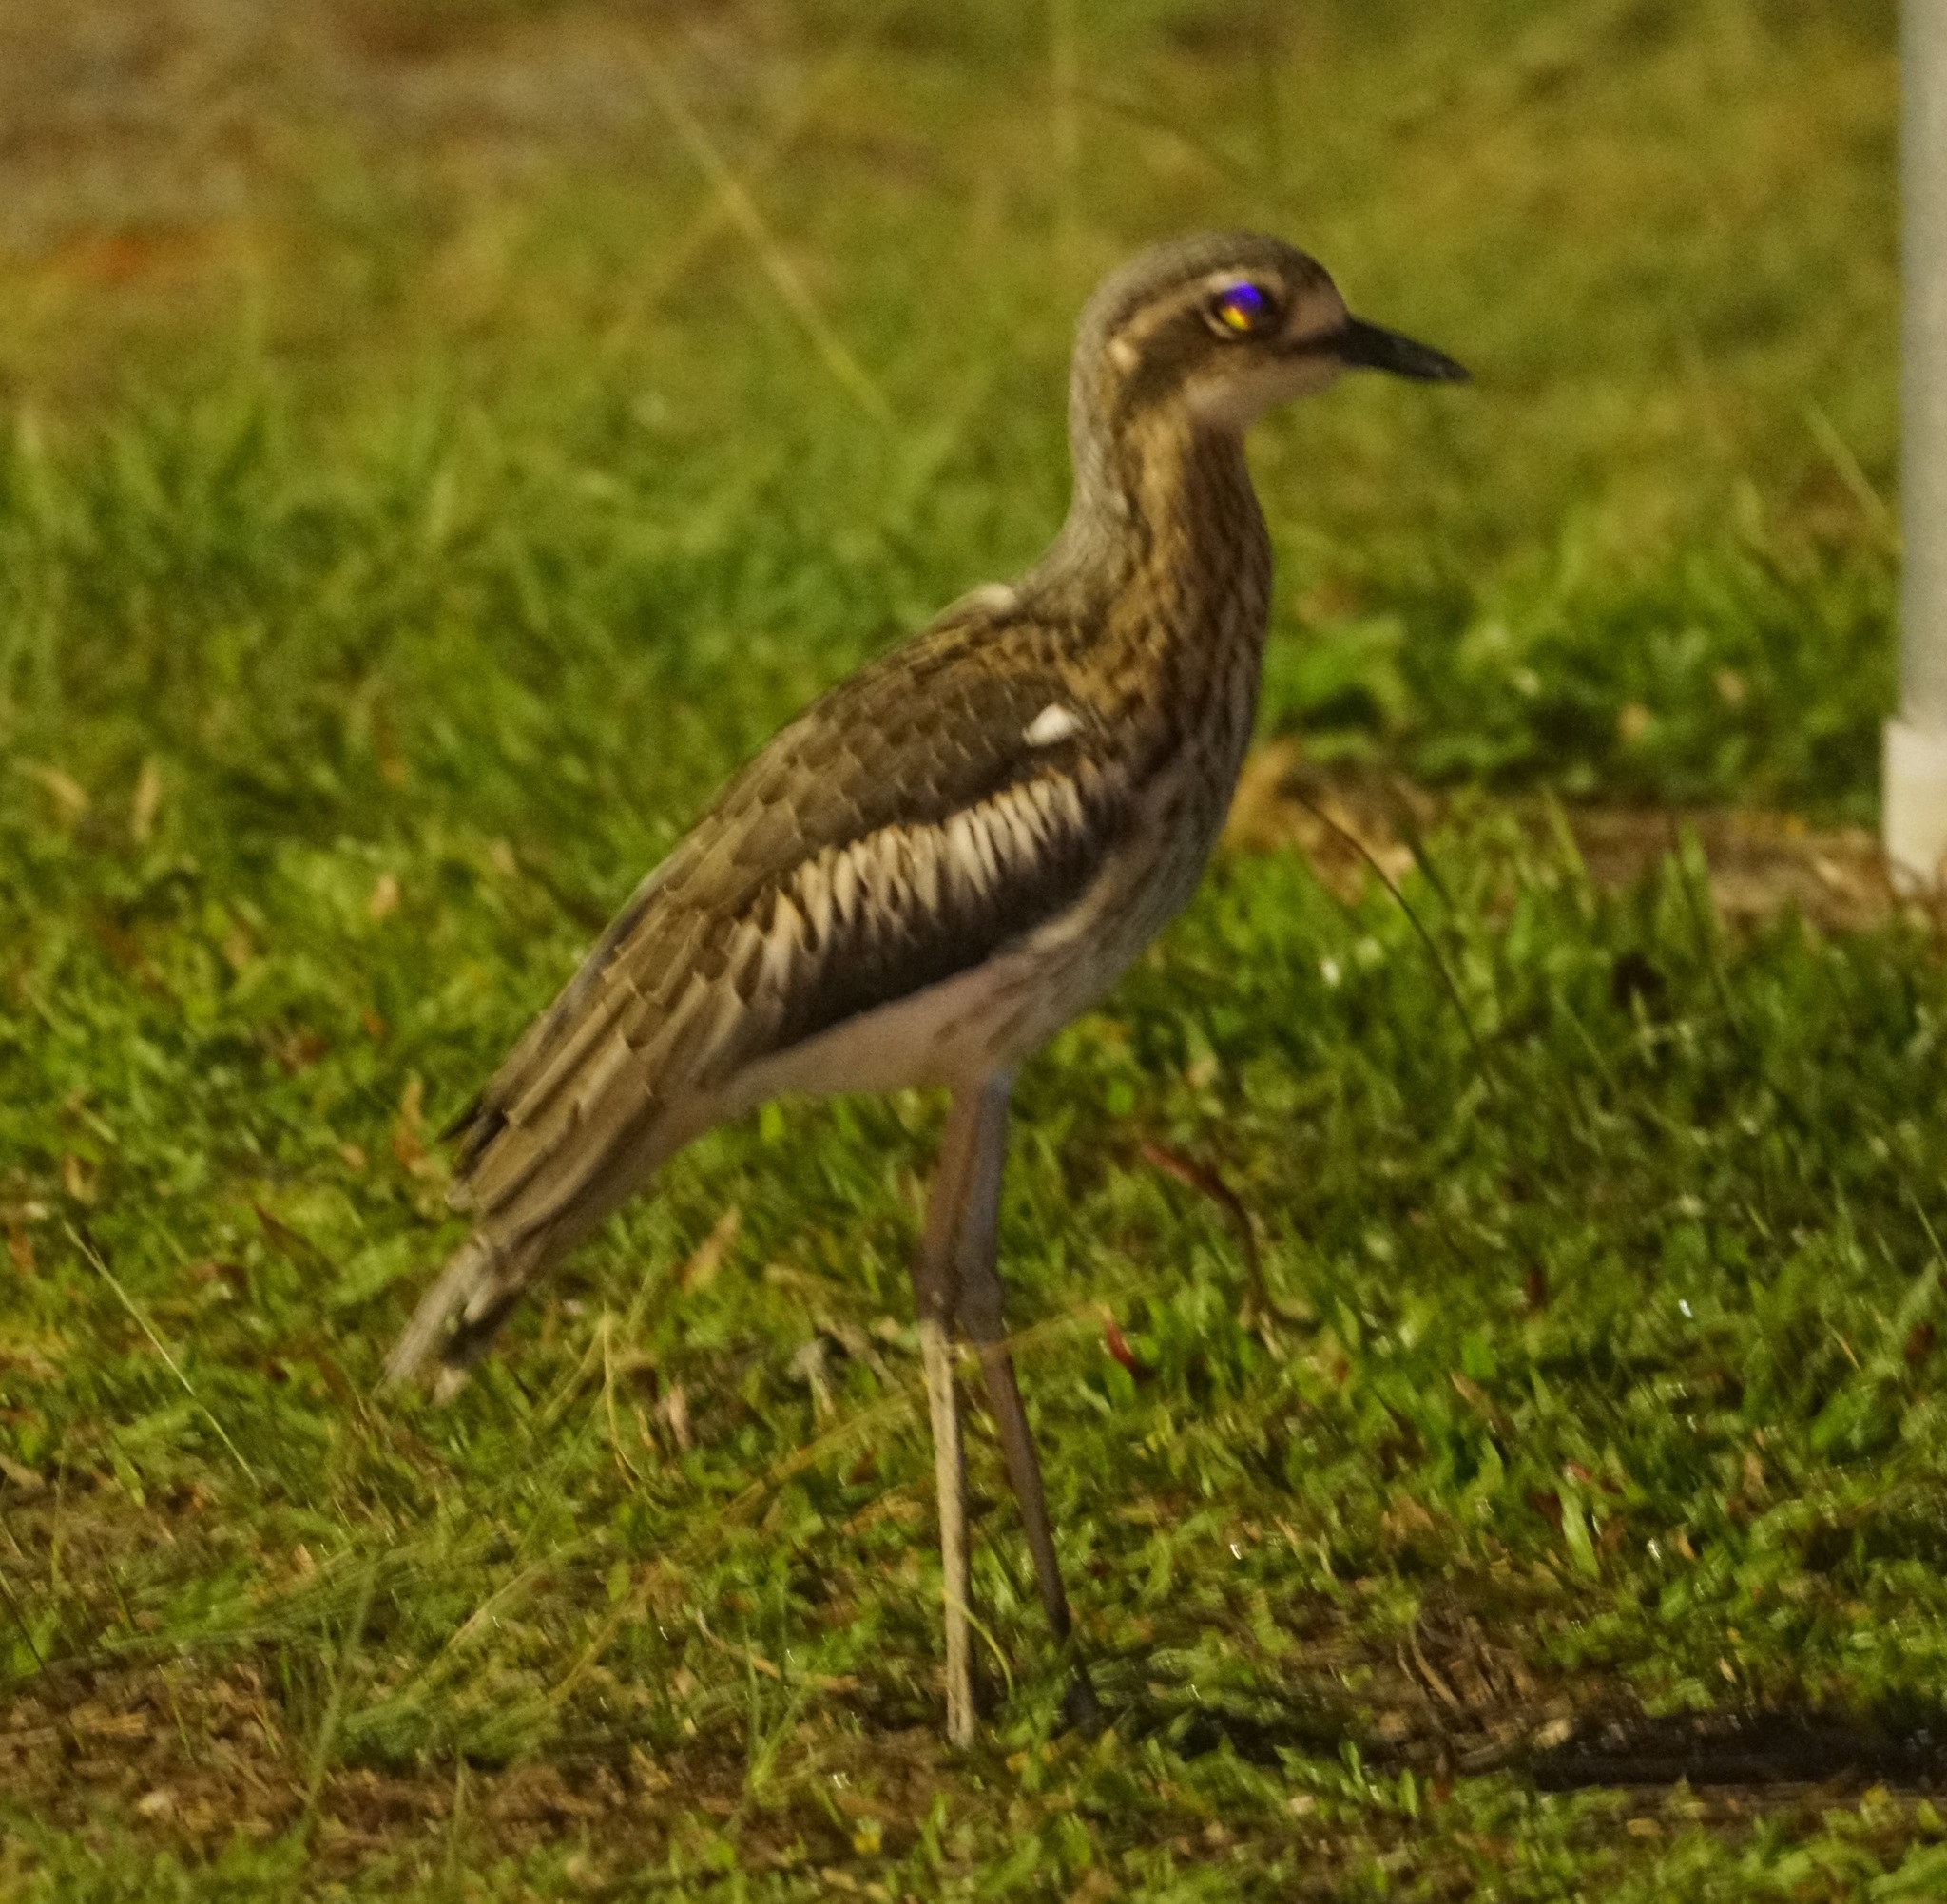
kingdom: Animalia
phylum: Chordata
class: Aves
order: Charadriiformes
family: Burhinidae
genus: Burhinus
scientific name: Burhinus grallarius
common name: Bush stone-curlew
